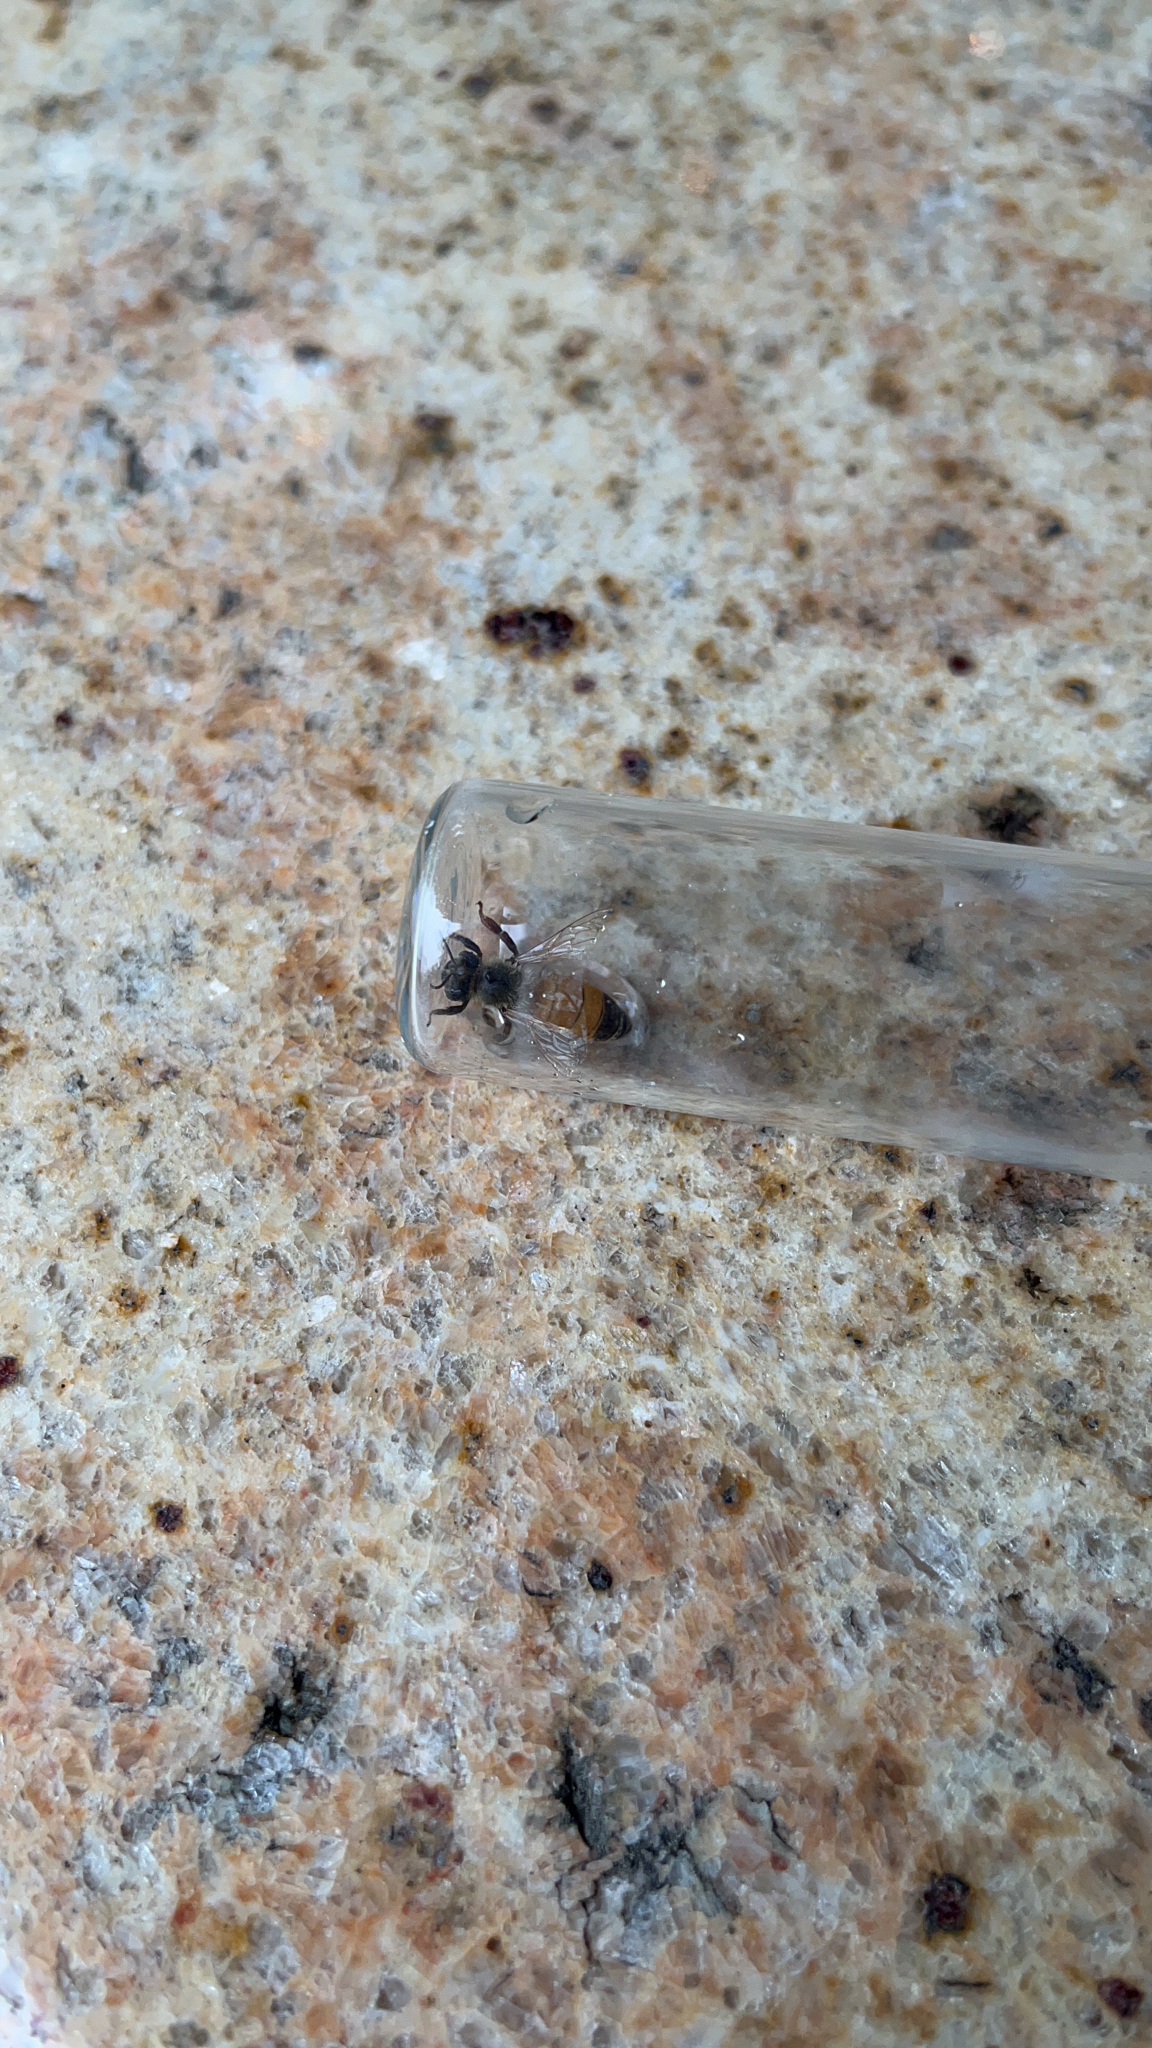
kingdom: Animalia
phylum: Arthropoda
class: Insecta
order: Hymenoptera
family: Apidae
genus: Apis
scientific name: Apis mellifera
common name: Honey bee
